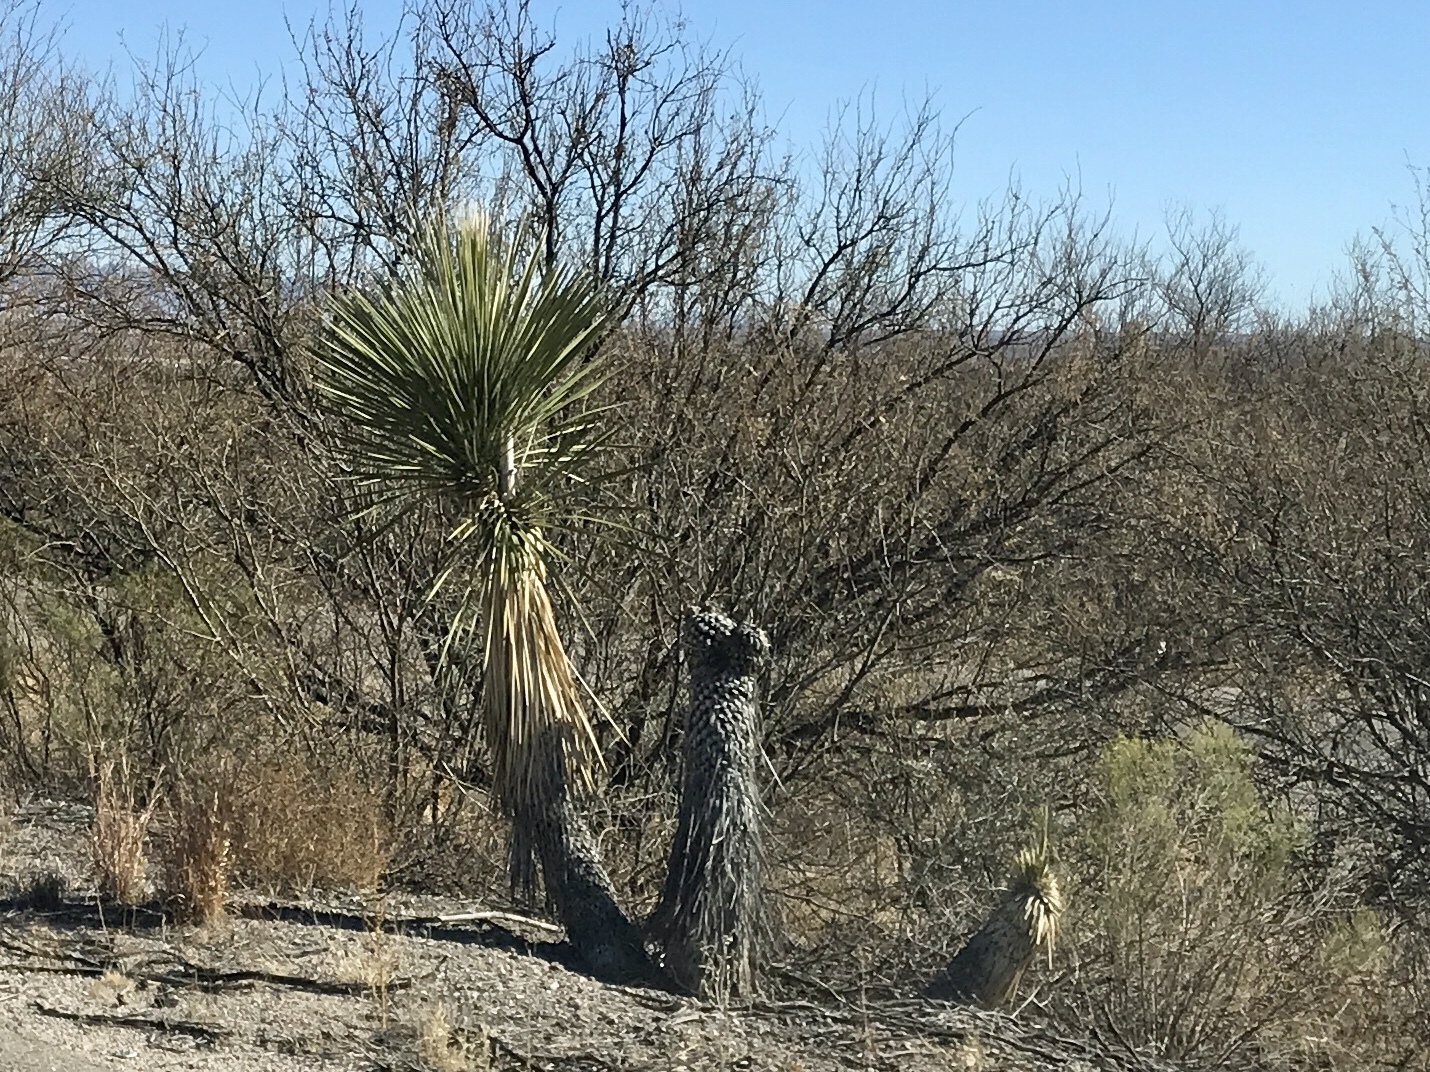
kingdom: Plantae
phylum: Tracheophyta
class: Liliopsida
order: Asparagales
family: Asparagaceae
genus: Yucca
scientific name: Yucca elata
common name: Palmella
